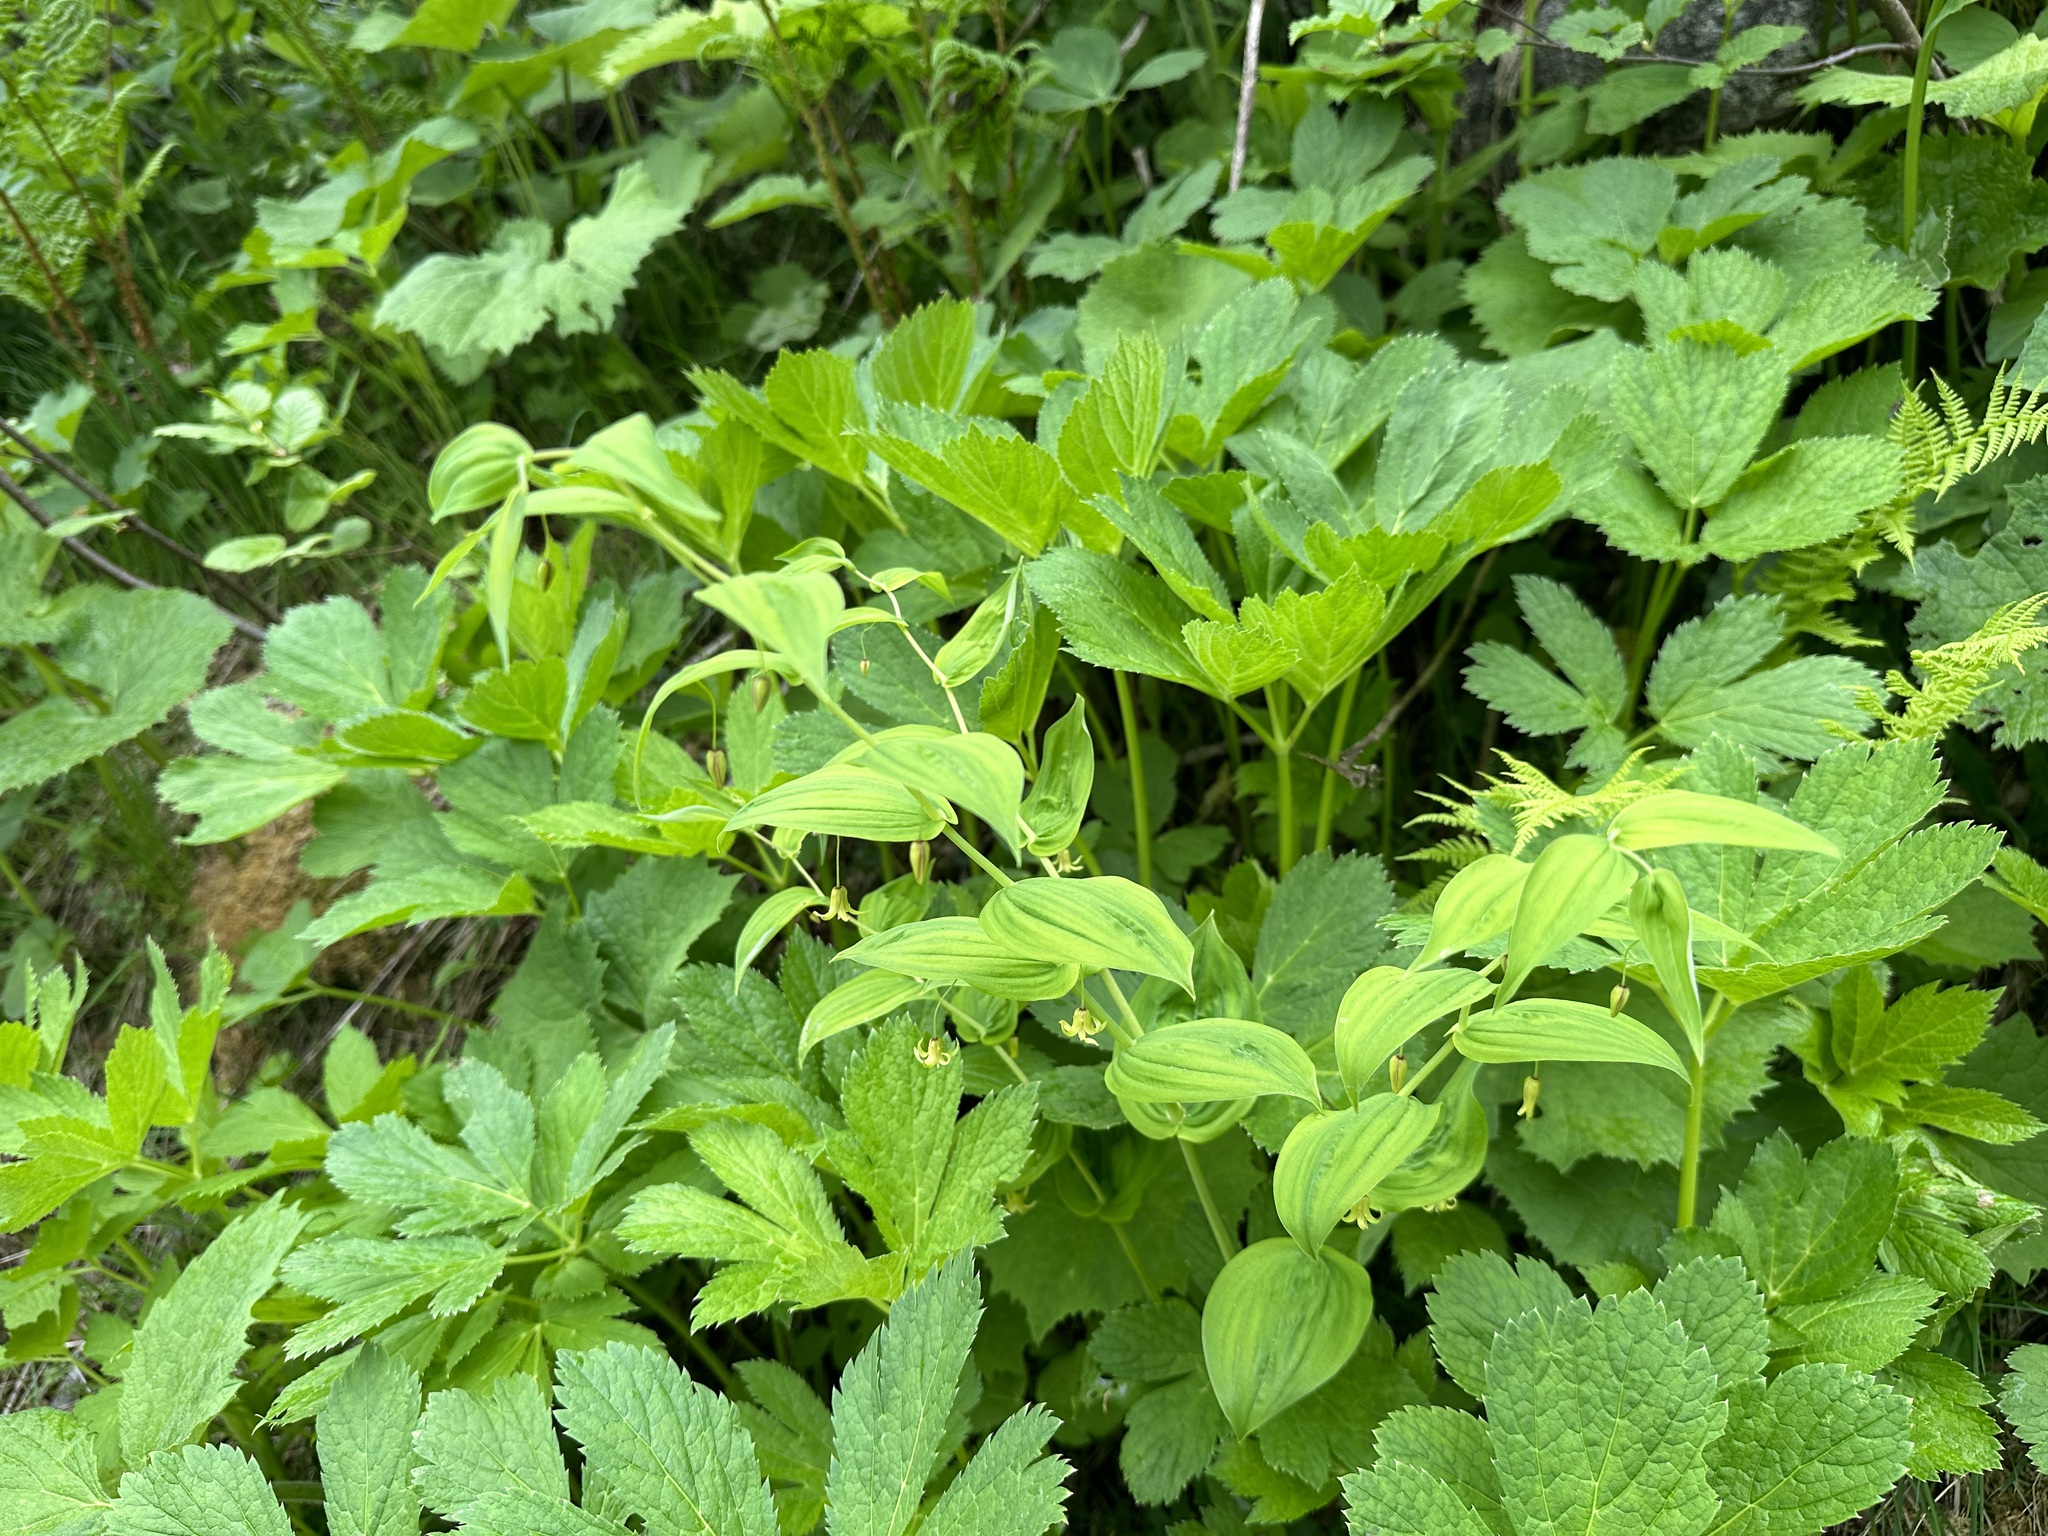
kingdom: Plantae
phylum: Tracheophyta
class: Liliopsida
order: Liliales
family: Liliaceae
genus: Streptopus
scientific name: Streptopus amplexifolius
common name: Clasp twisted stalk
